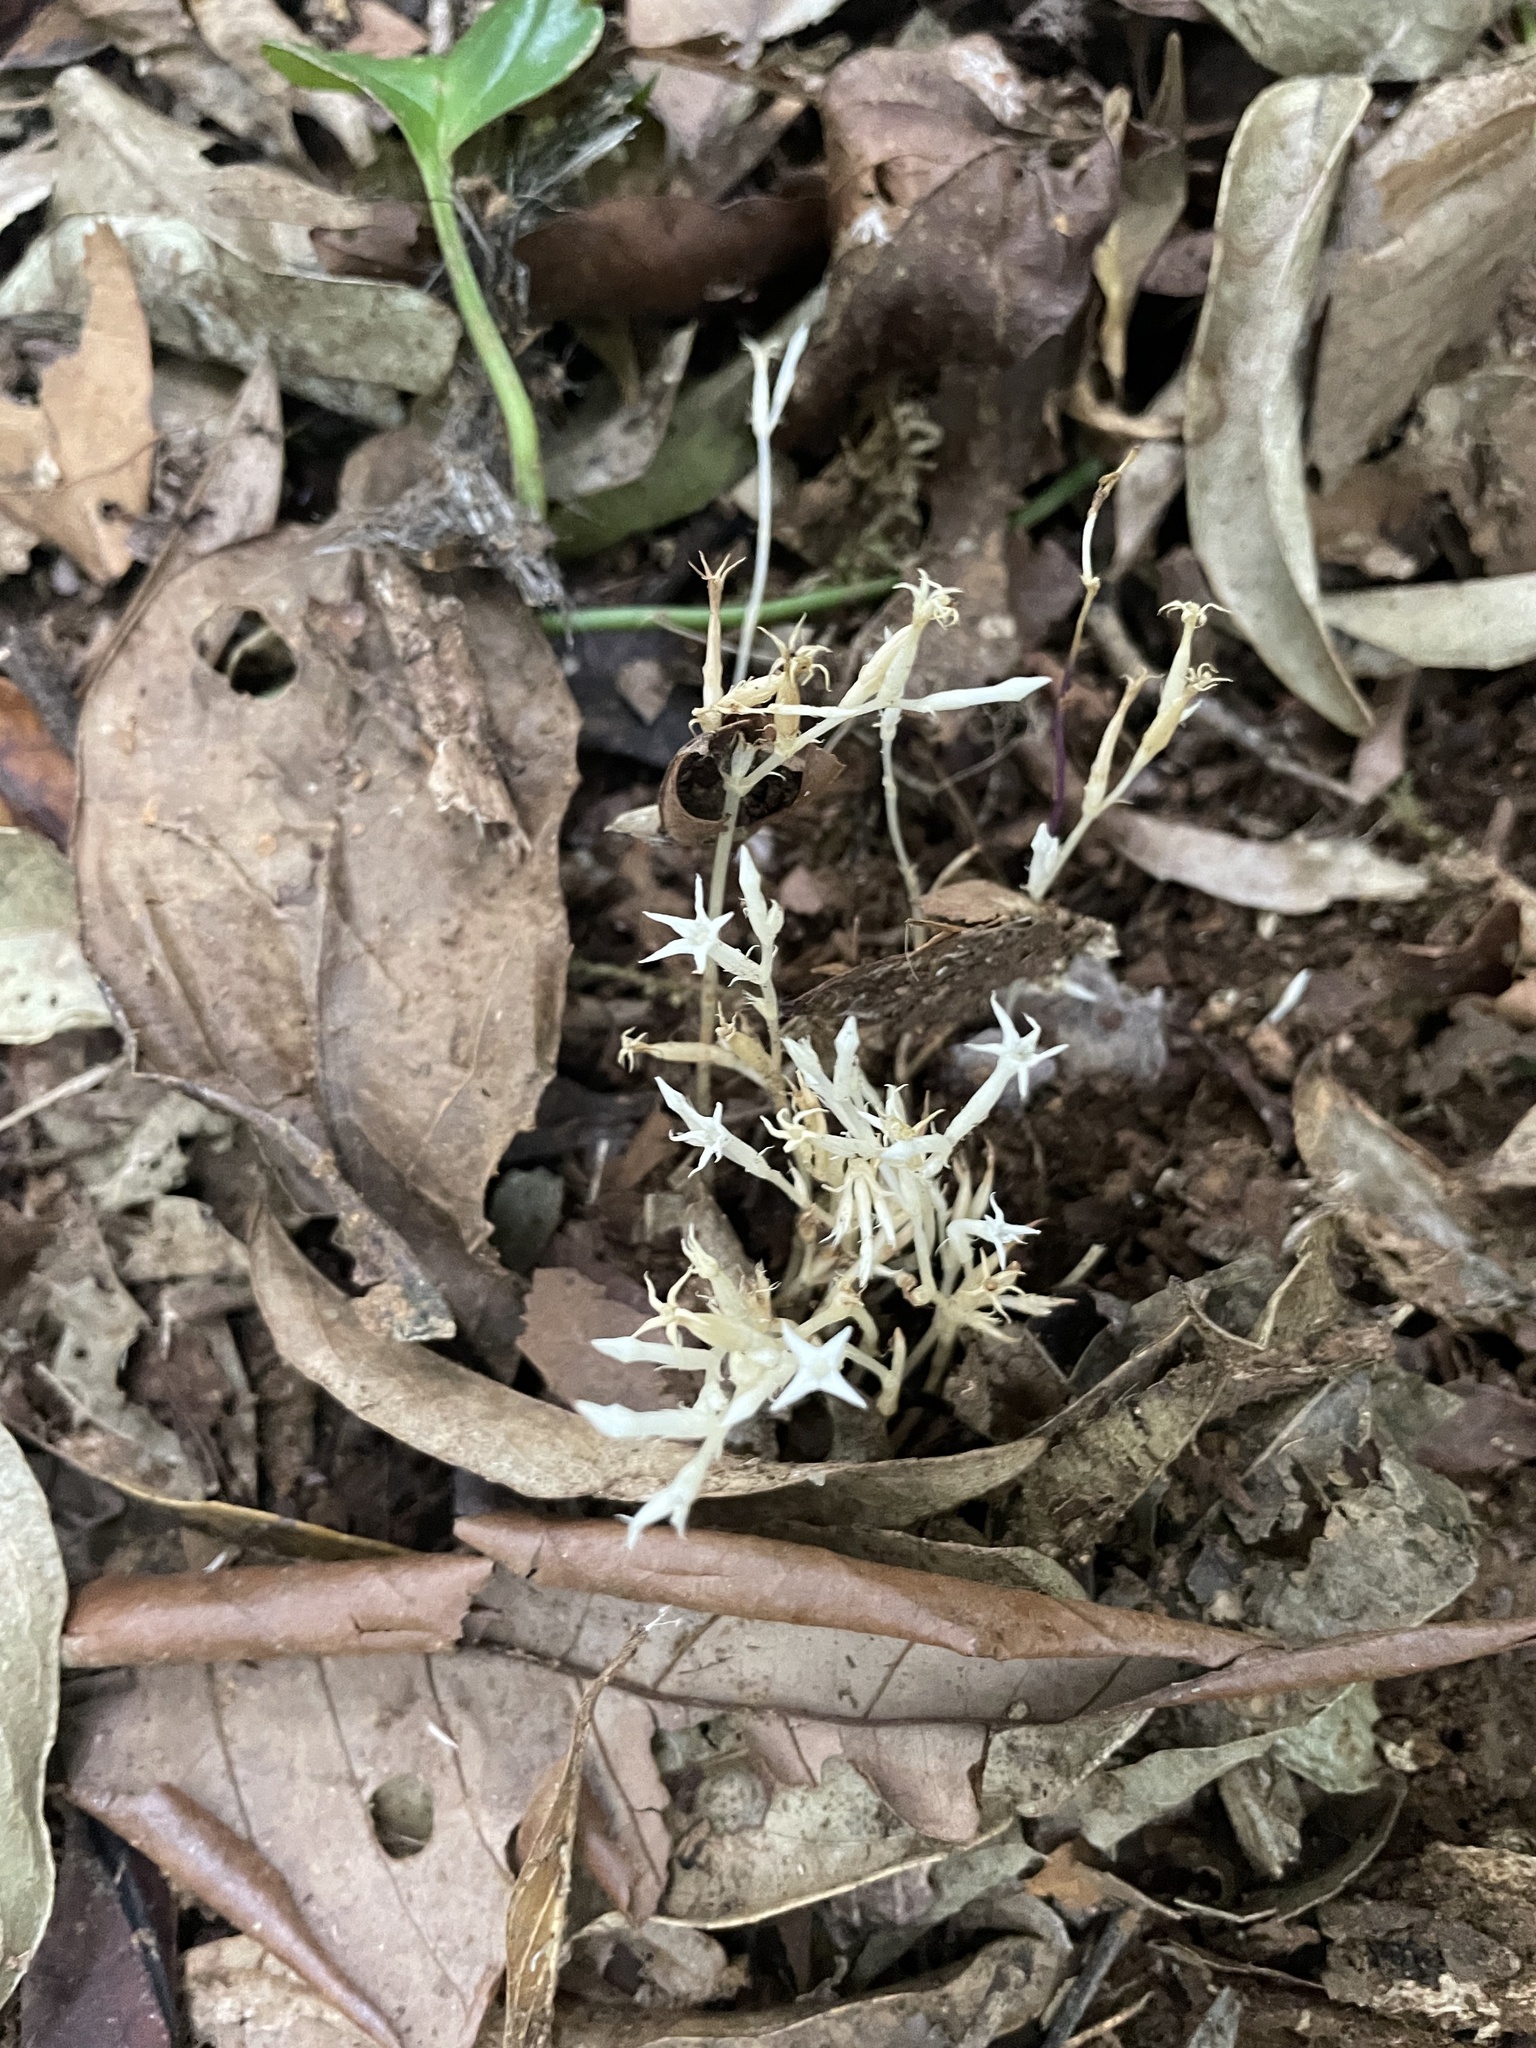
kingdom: Plantae
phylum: Tracheophyta
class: Magnoliopsida
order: Gentianales
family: Gentianaceae
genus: Voyria
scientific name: Voyria alba
